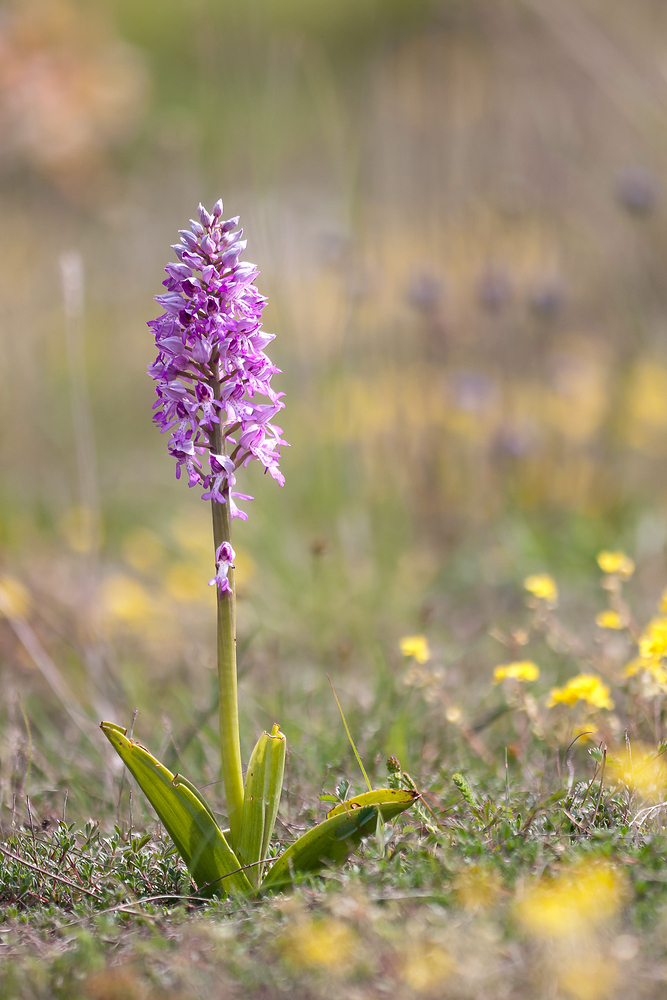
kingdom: Plantae
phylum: Tracheophyta
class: Liliopsida
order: Asparagales
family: Orchidaceae
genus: Orchis
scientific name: Orchis militaris
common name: Military orchid
